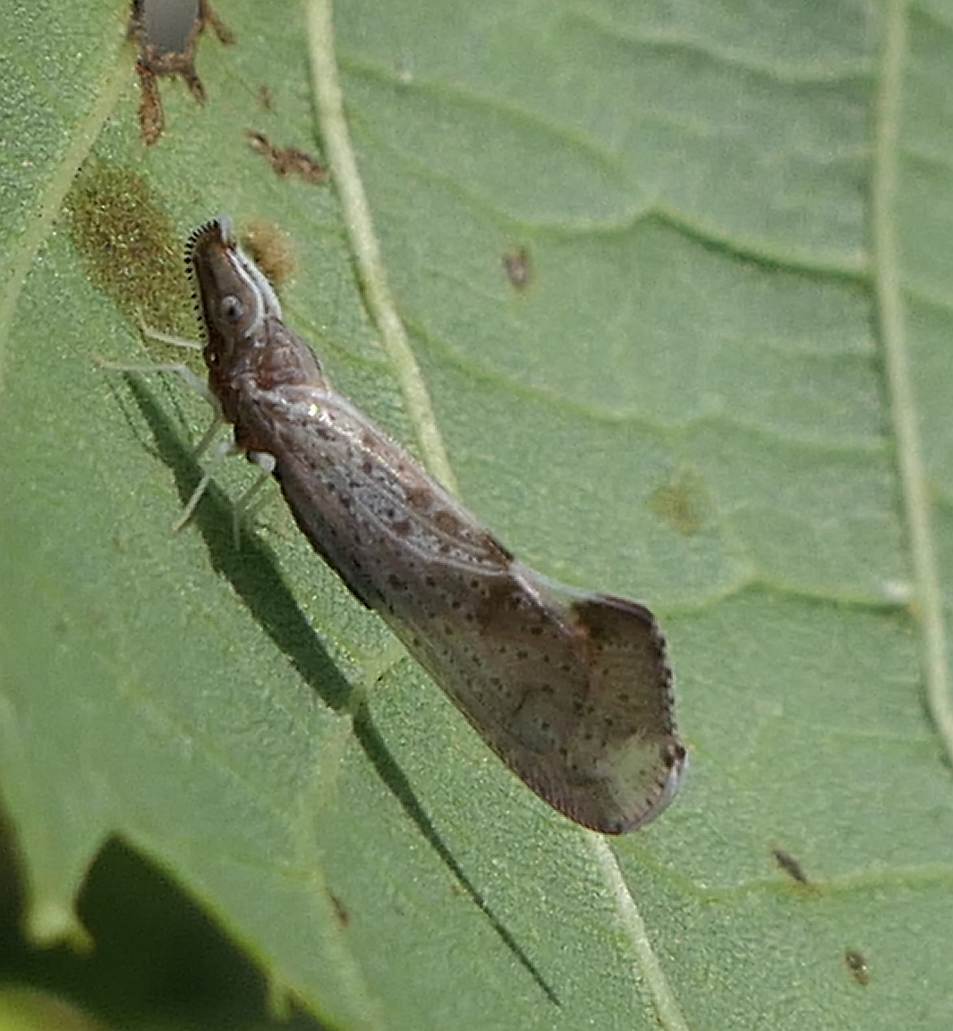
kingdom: Animalia
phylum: Arthropoda
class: Insecta
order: Hemiptera
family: Derbidae
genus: Apache
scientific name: Apache degeeri
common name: Red-fanned planthopper
